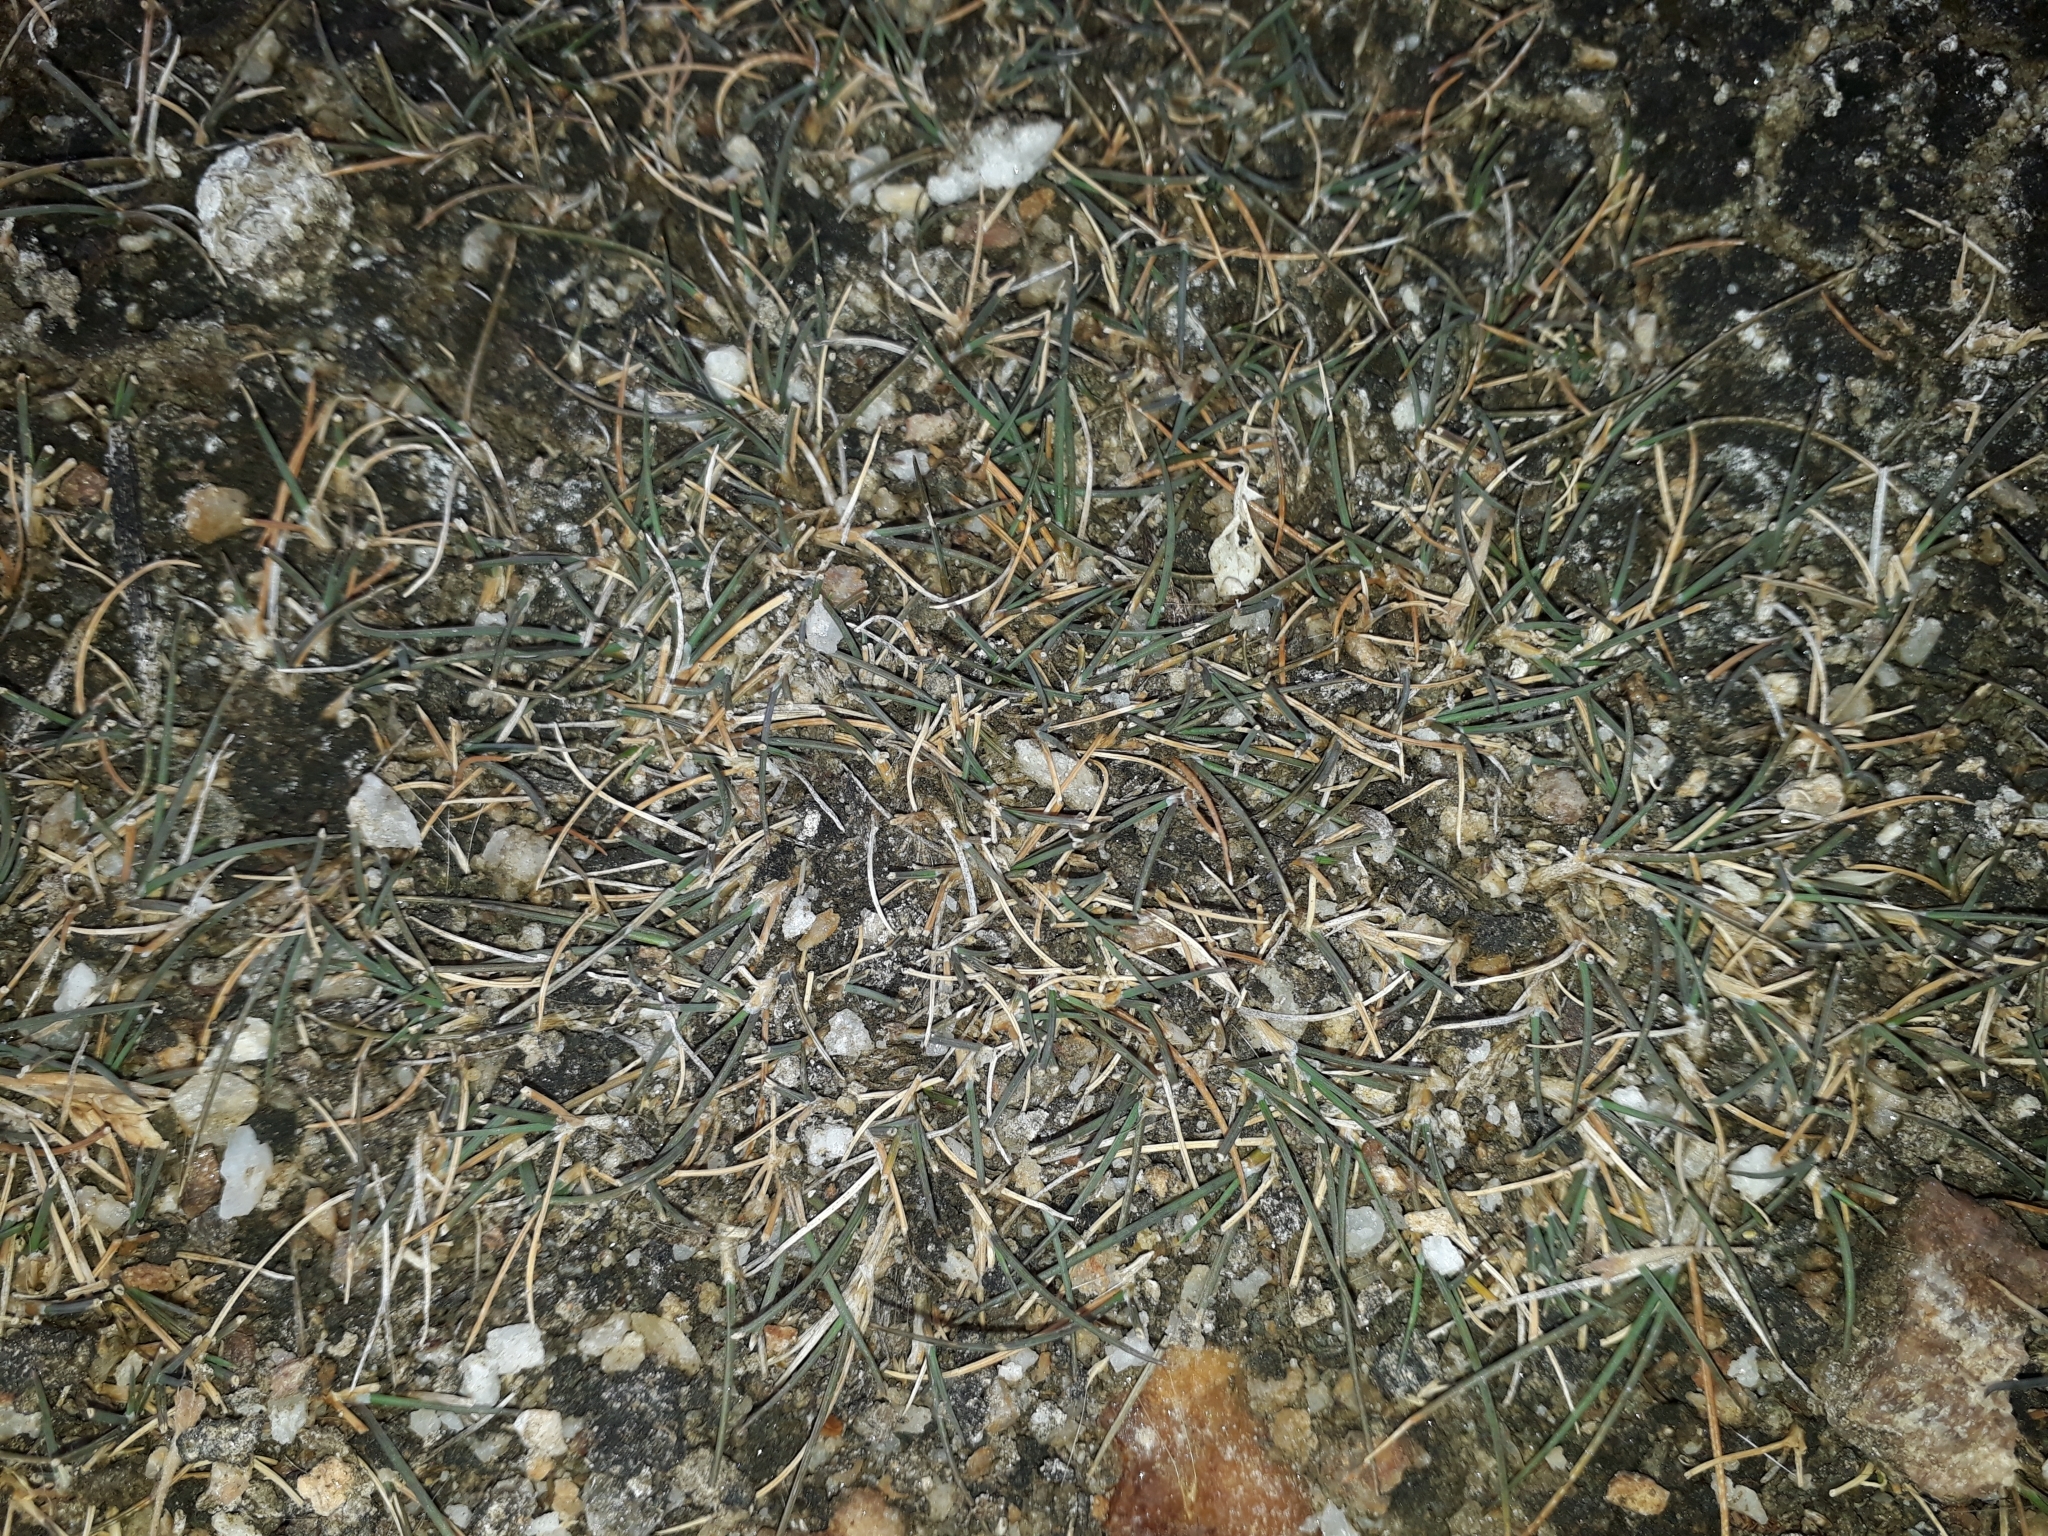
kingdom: Plantae
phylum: Tracheophyta
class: Liliopsida
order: Poales
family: Poaceae
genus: Puccinellia
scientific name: Puccinellia raroflorens
